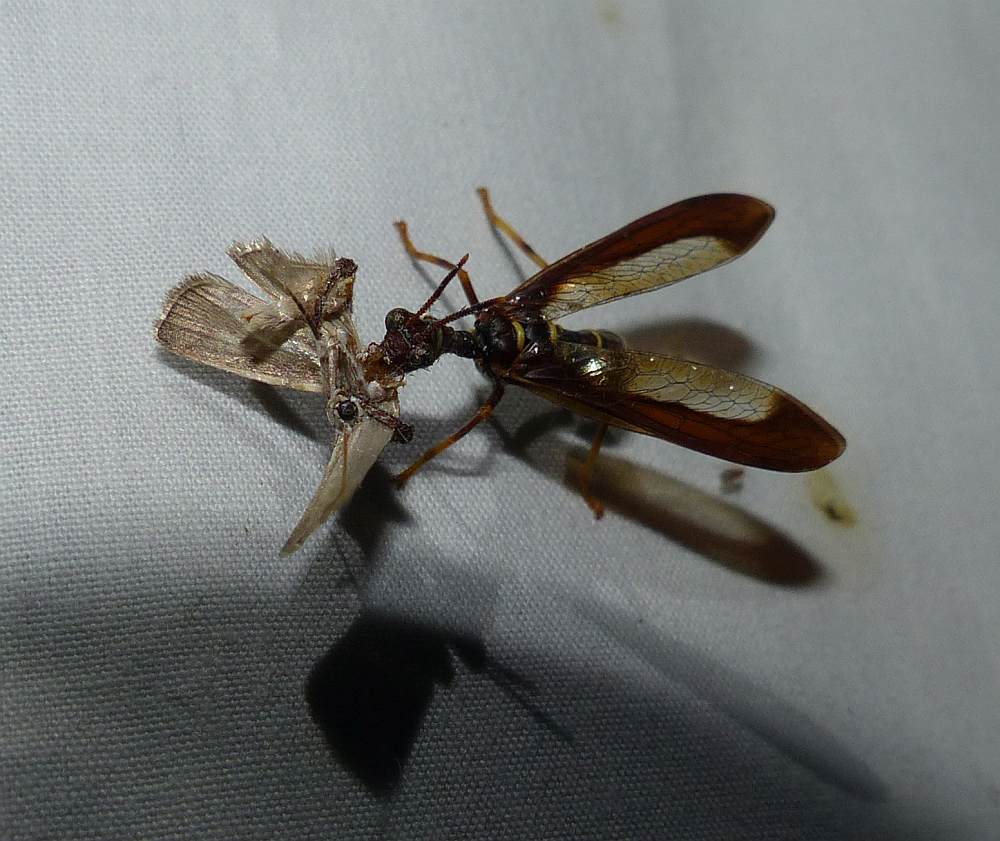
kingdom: Animalia
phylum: Arthropoda
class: Insecta
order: Neuroptera
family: Mantispidae
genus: Climaciella
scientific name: Climaciella brunnea
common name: Brown wasp mantidfly
